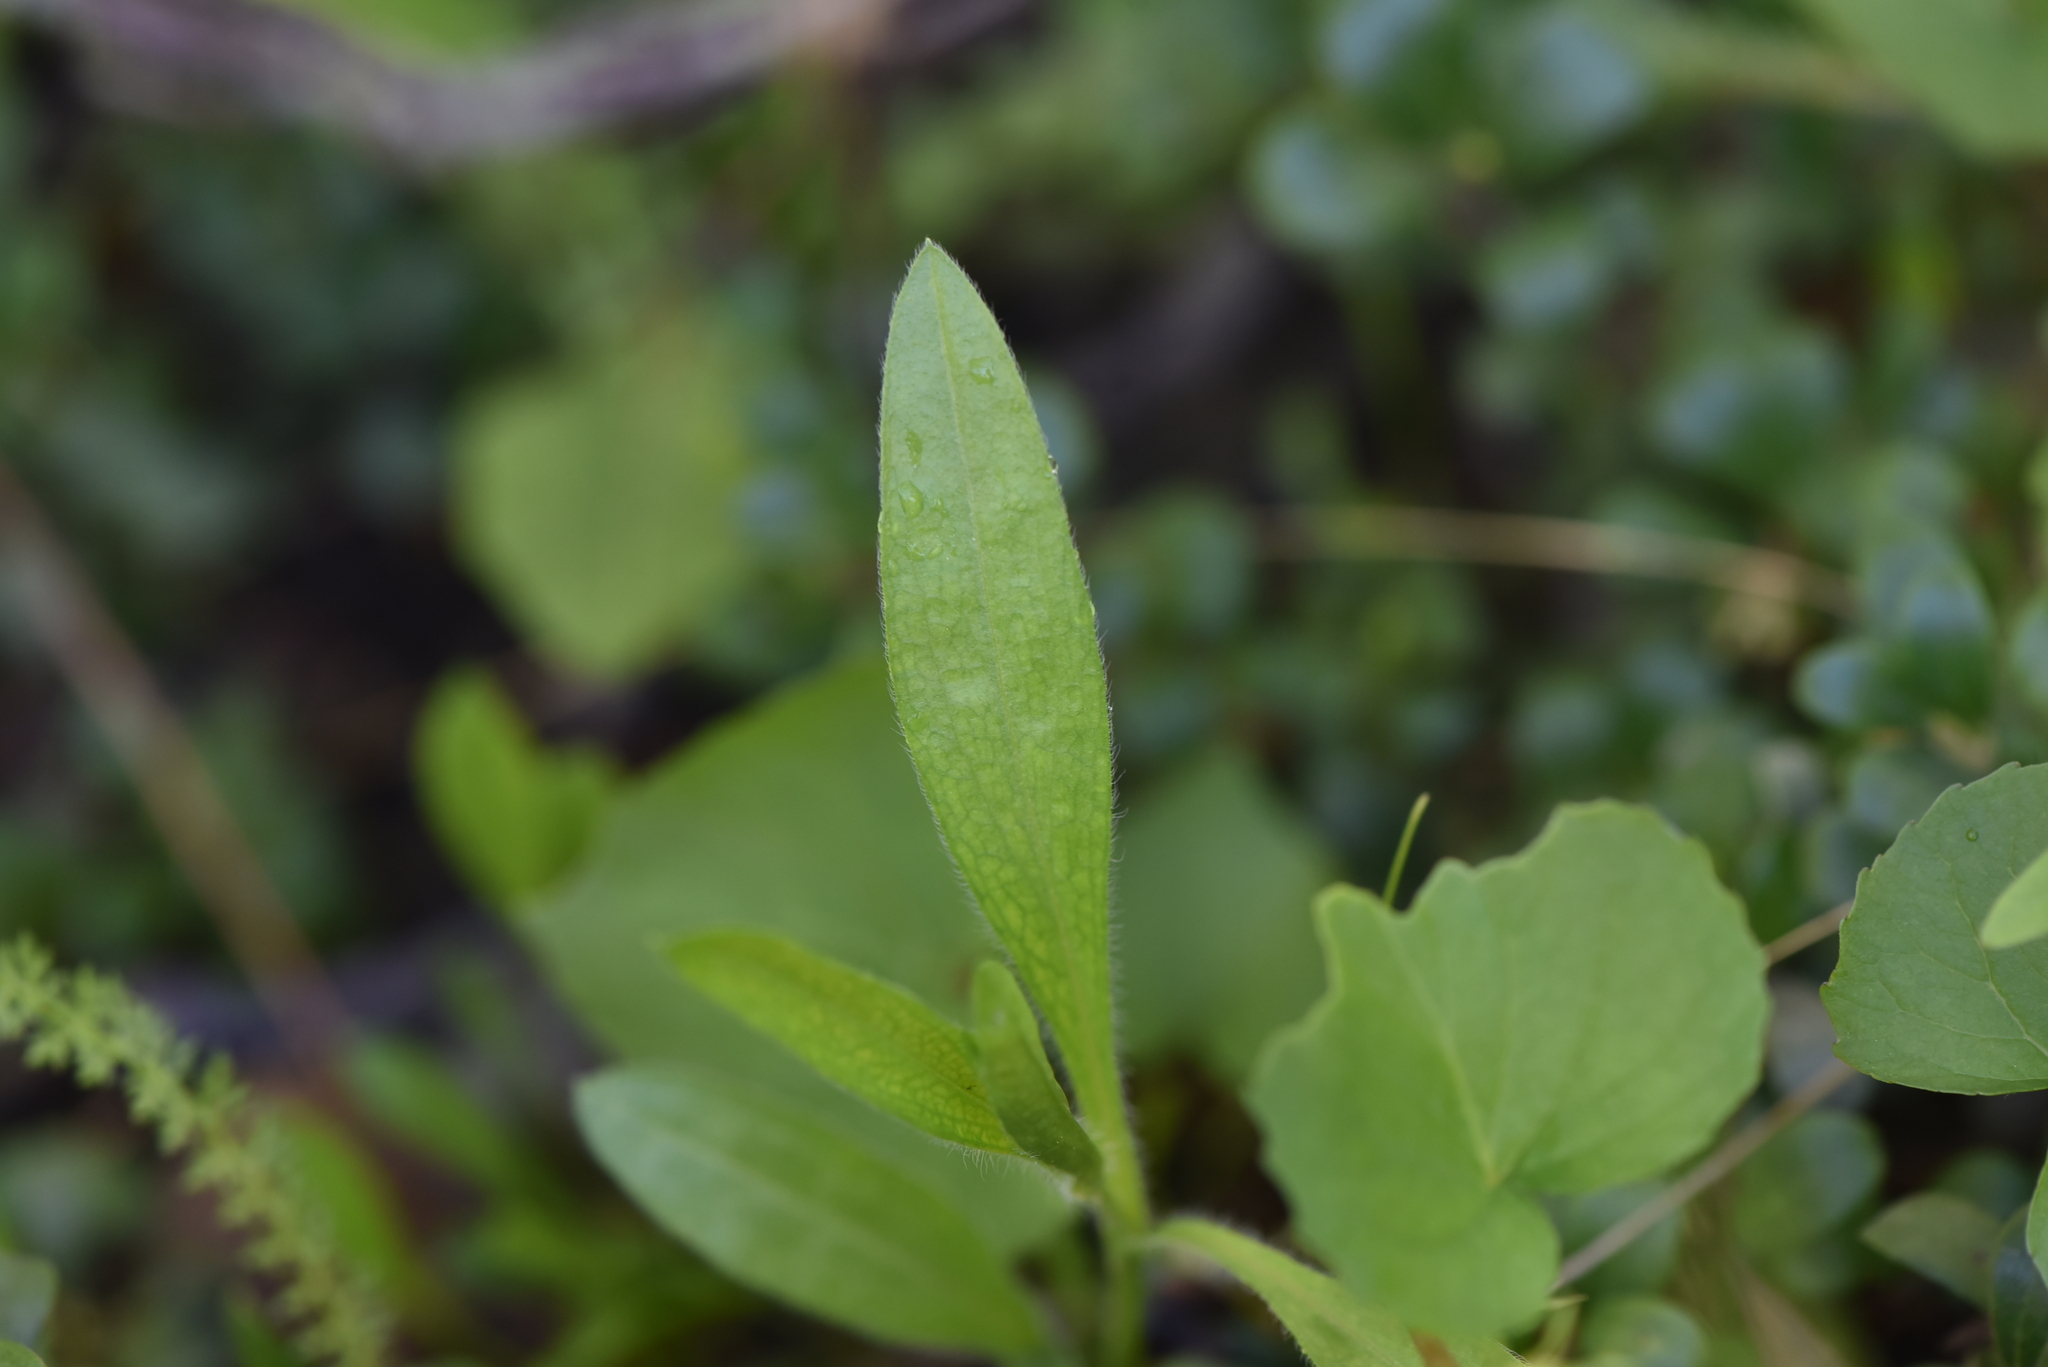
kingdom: Plantae
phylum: Tracheophyta
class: Magnoliopsida
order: Malpighiales
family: Violaceae
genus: Viola
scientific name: Viola canadensis
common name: Canada violet
